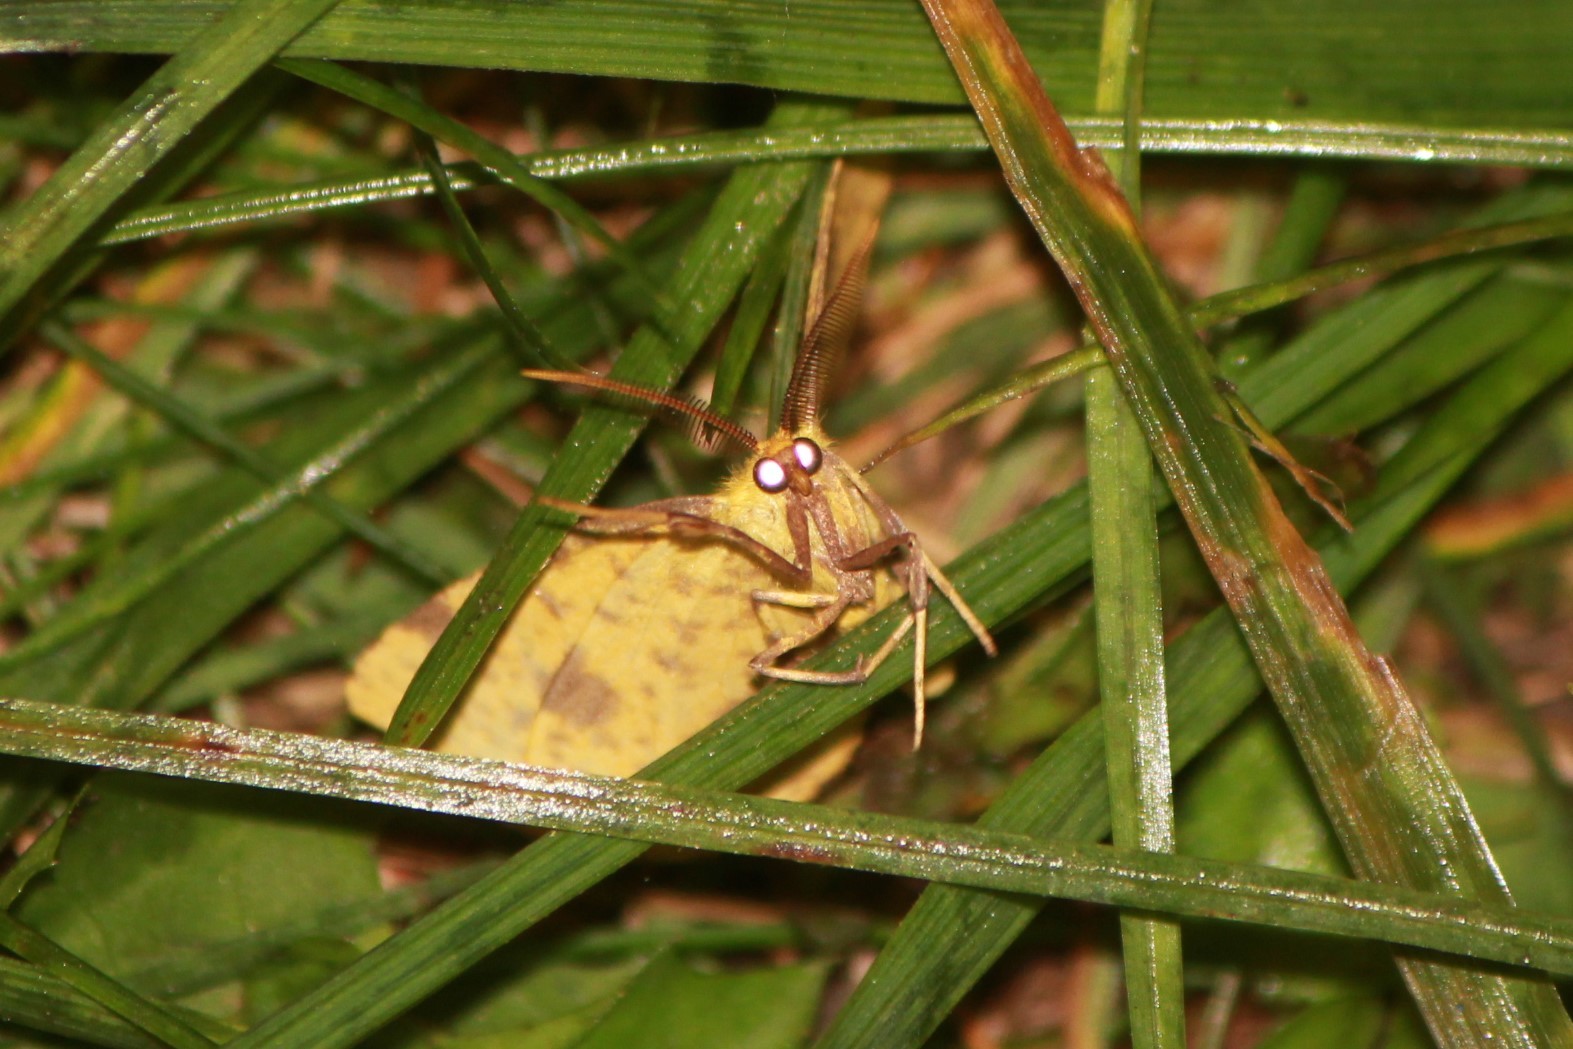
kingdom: Animalia
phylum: Arthropoda
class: Insecta
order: Lepidoptera
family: Geometridae
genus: Xanthotype
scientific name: Xanthotype
